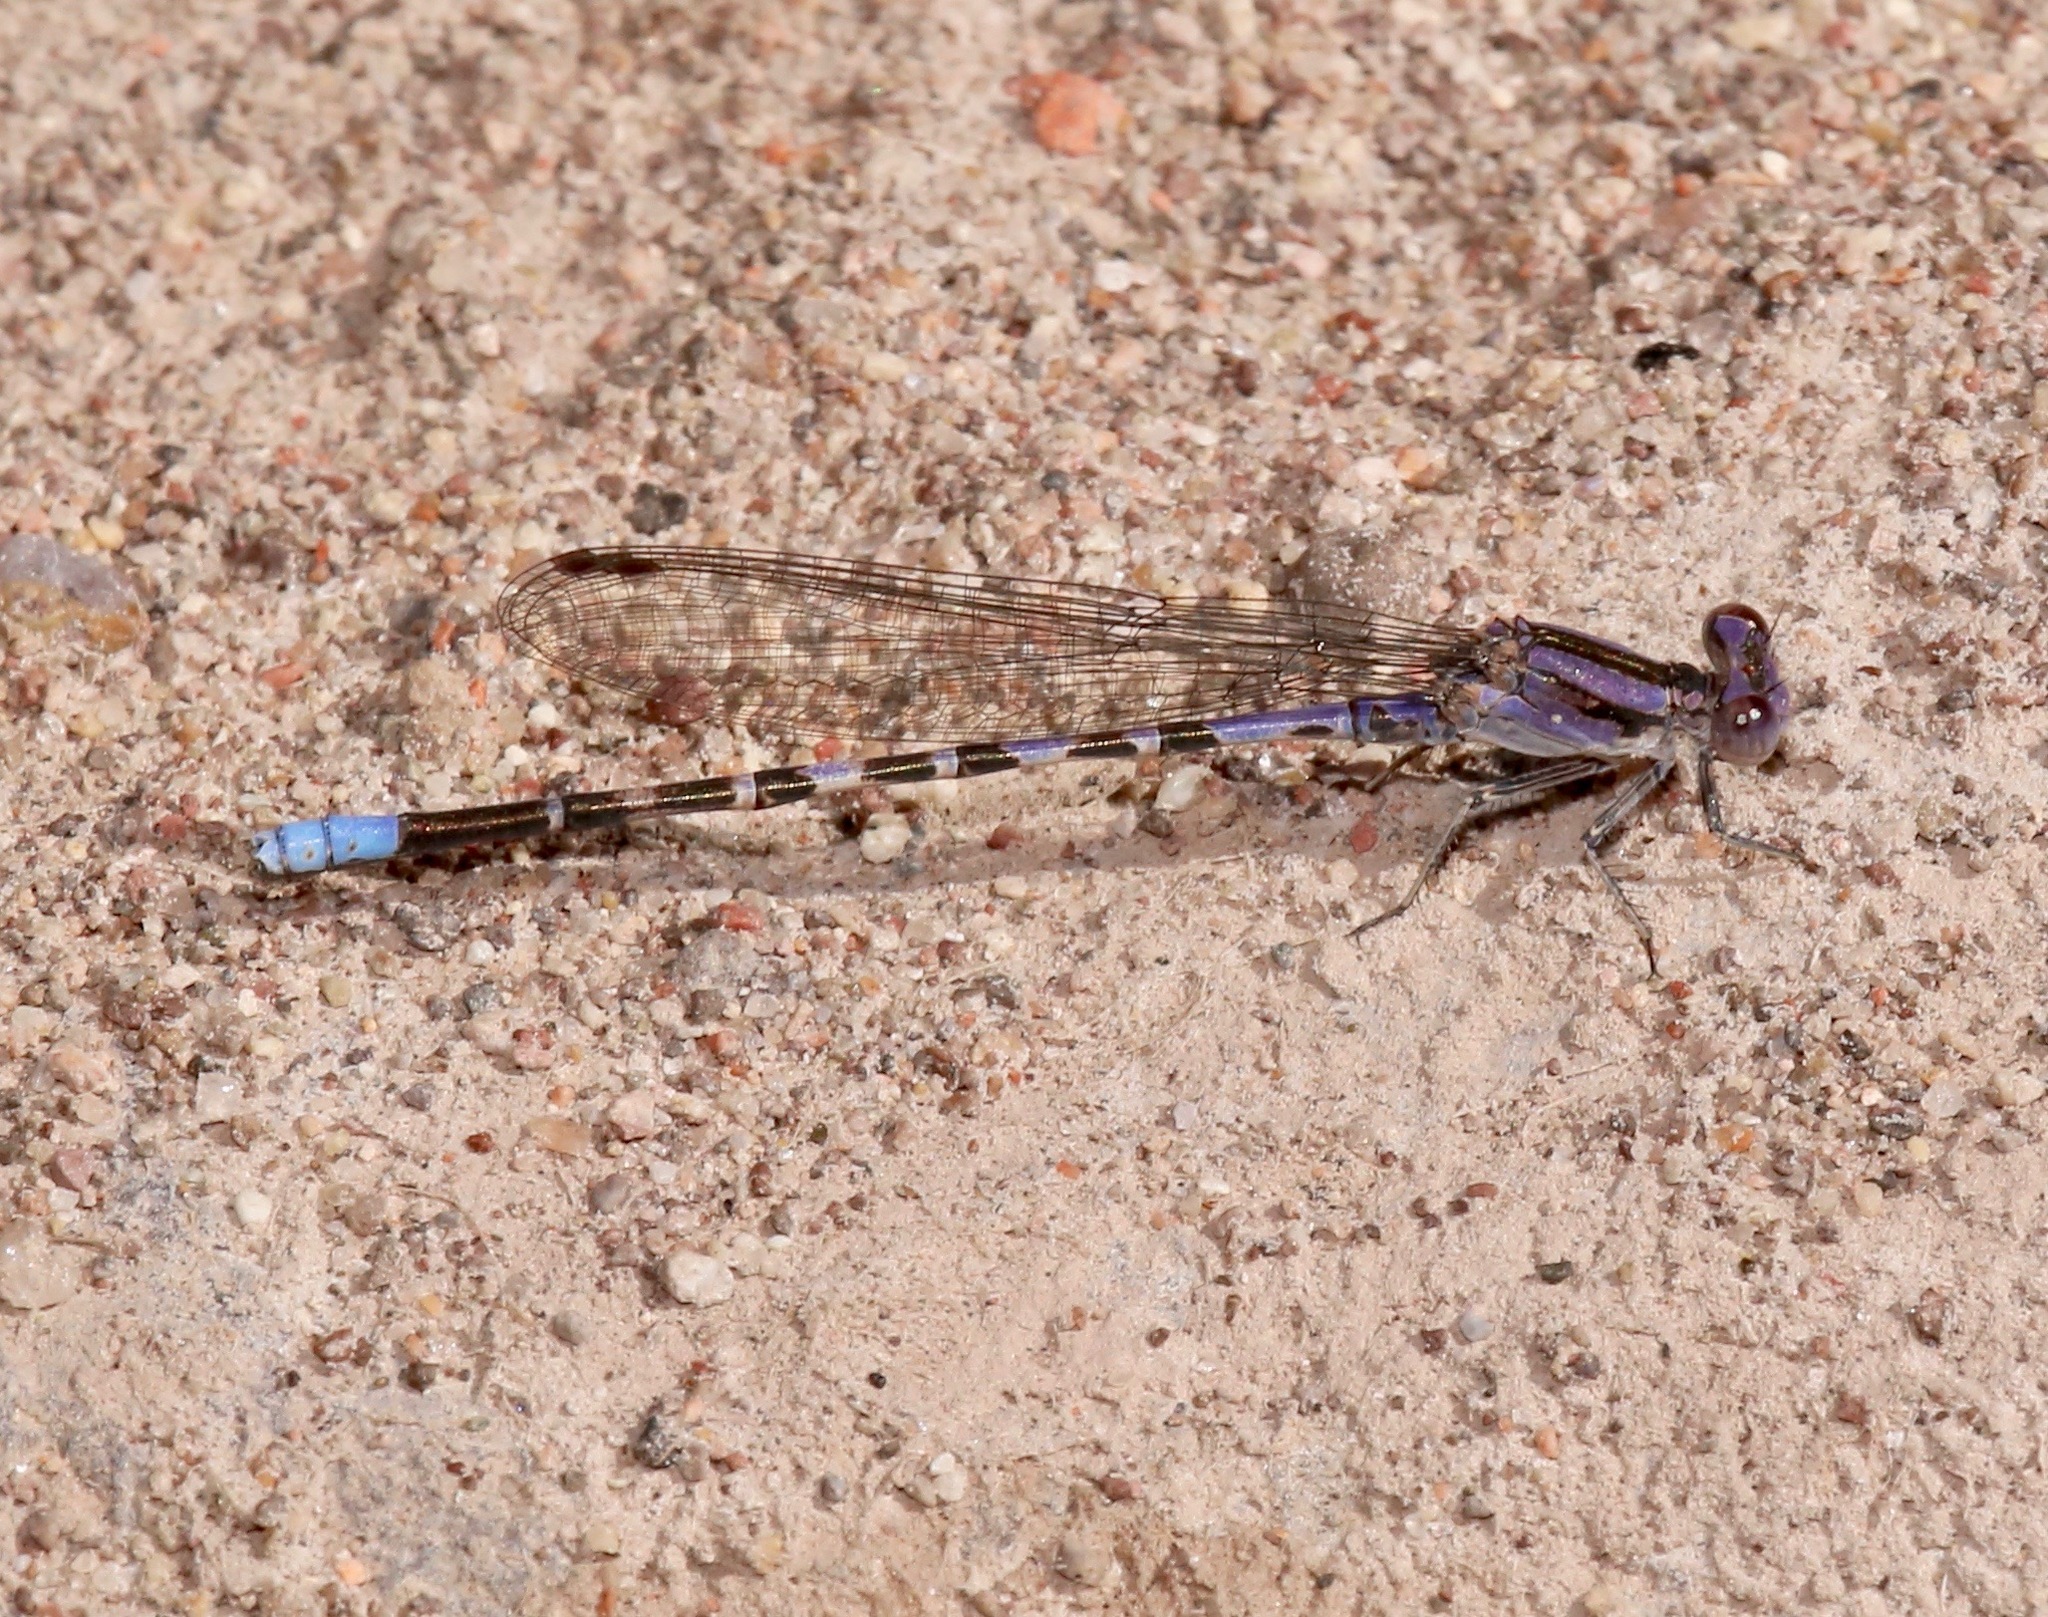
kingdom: Animalia
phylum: Arthropoda
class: Insecta
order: Odonata
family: Coenagrionidae
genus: Argia
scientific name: Argia immunda
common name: Kiowa dancer
